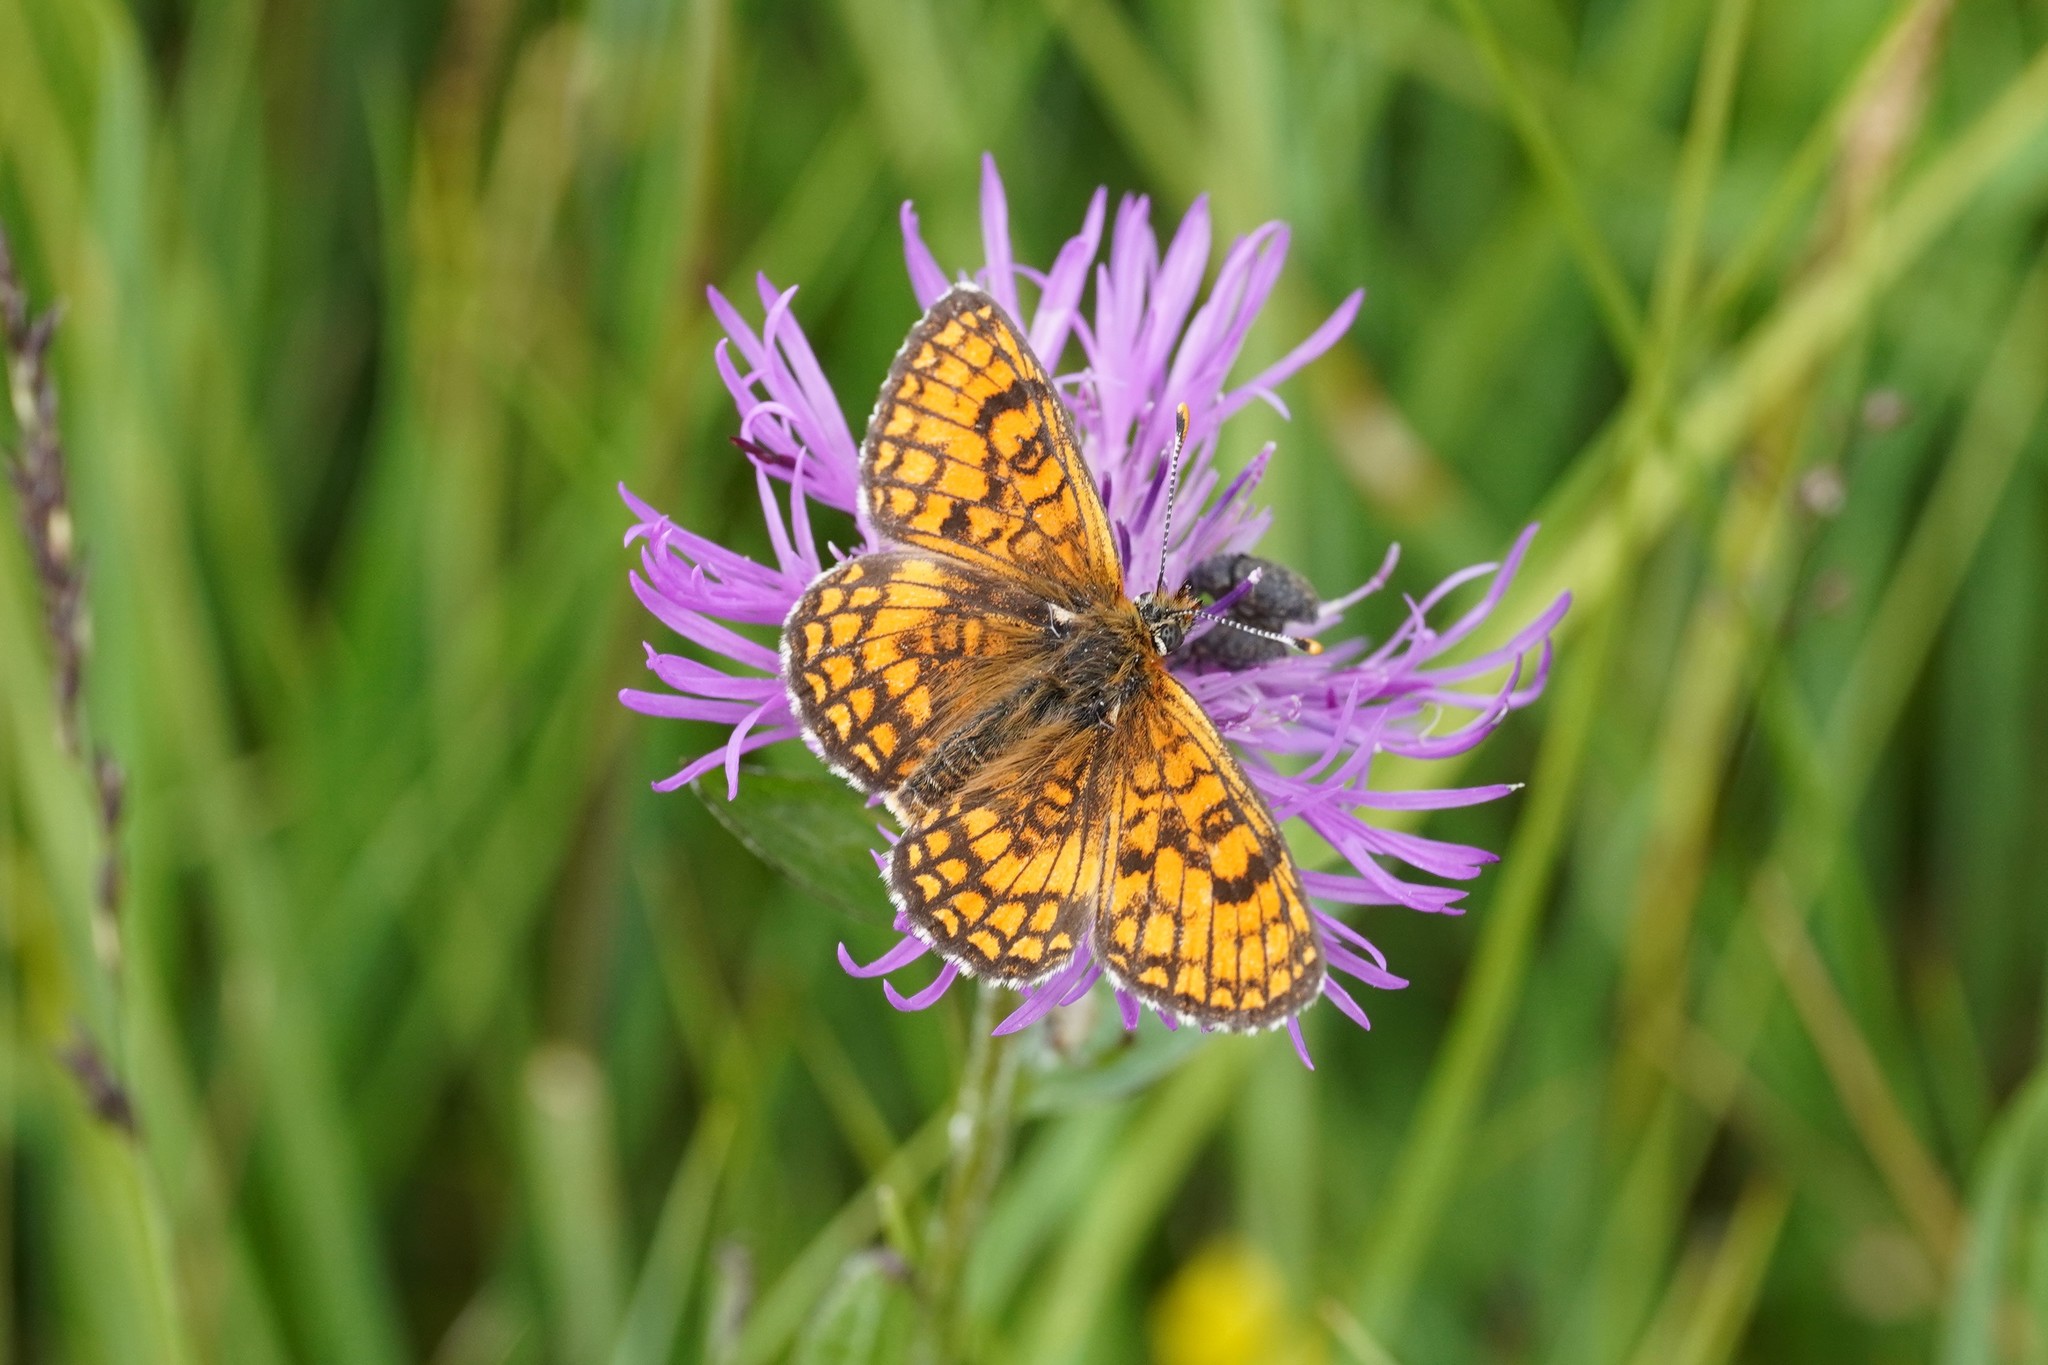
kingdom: Animalia
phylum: Arthropoda
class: Insecta
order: Lepidoptera
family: Nymphalidae
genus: Mellicta
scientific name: Mellicta parthenoides
